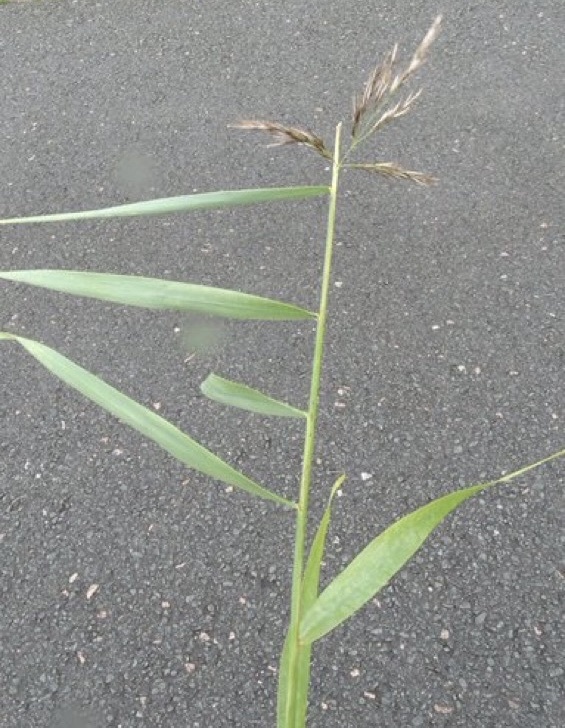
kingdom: Plantae
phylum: Tracheophyta
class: Liliopsida
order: Poales
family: Poaceae
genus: Phragmites
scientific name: Phragmites australis
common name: Common reed
